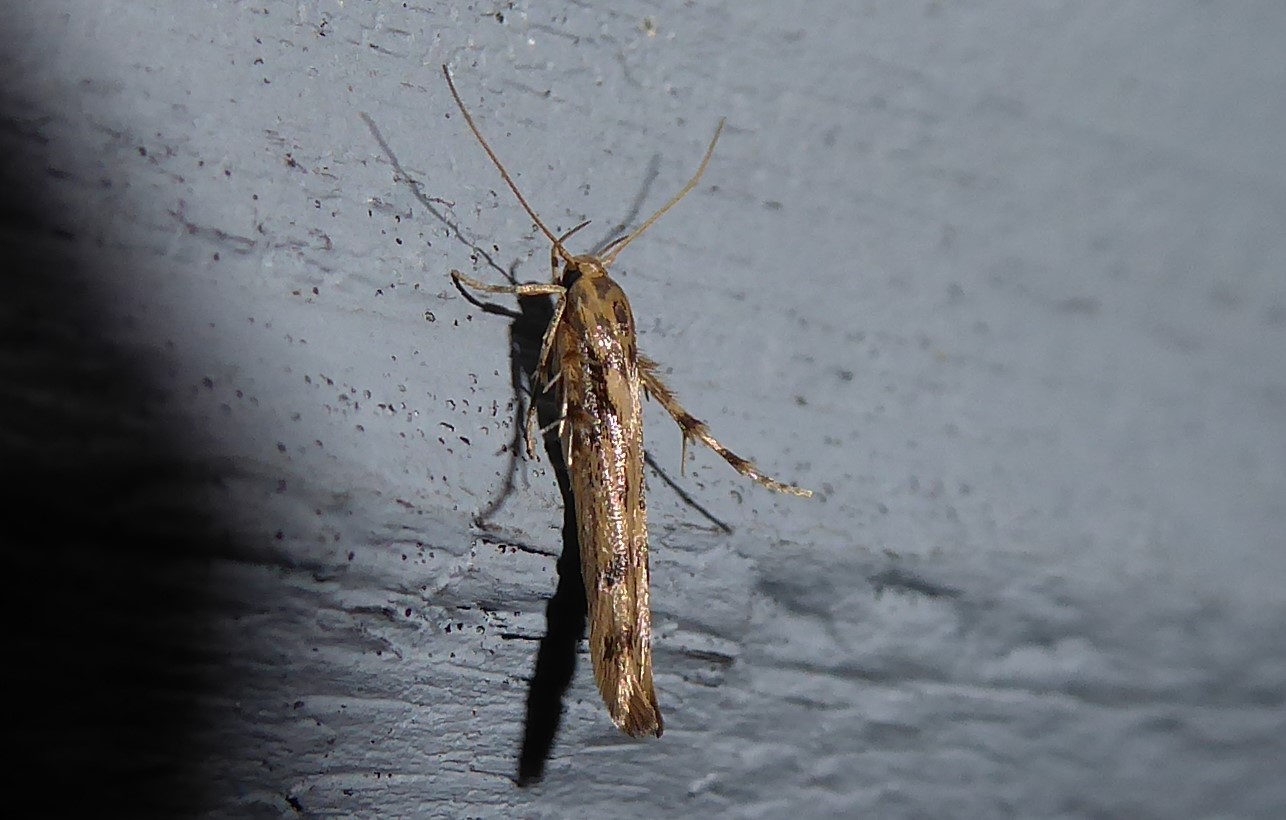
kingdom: Animalia
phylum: Arthropoda
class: Insecta
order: Lepidoptera
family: Stathmopodidae
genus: Stathmopoda
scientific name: Stathmopoda plumbiflua
